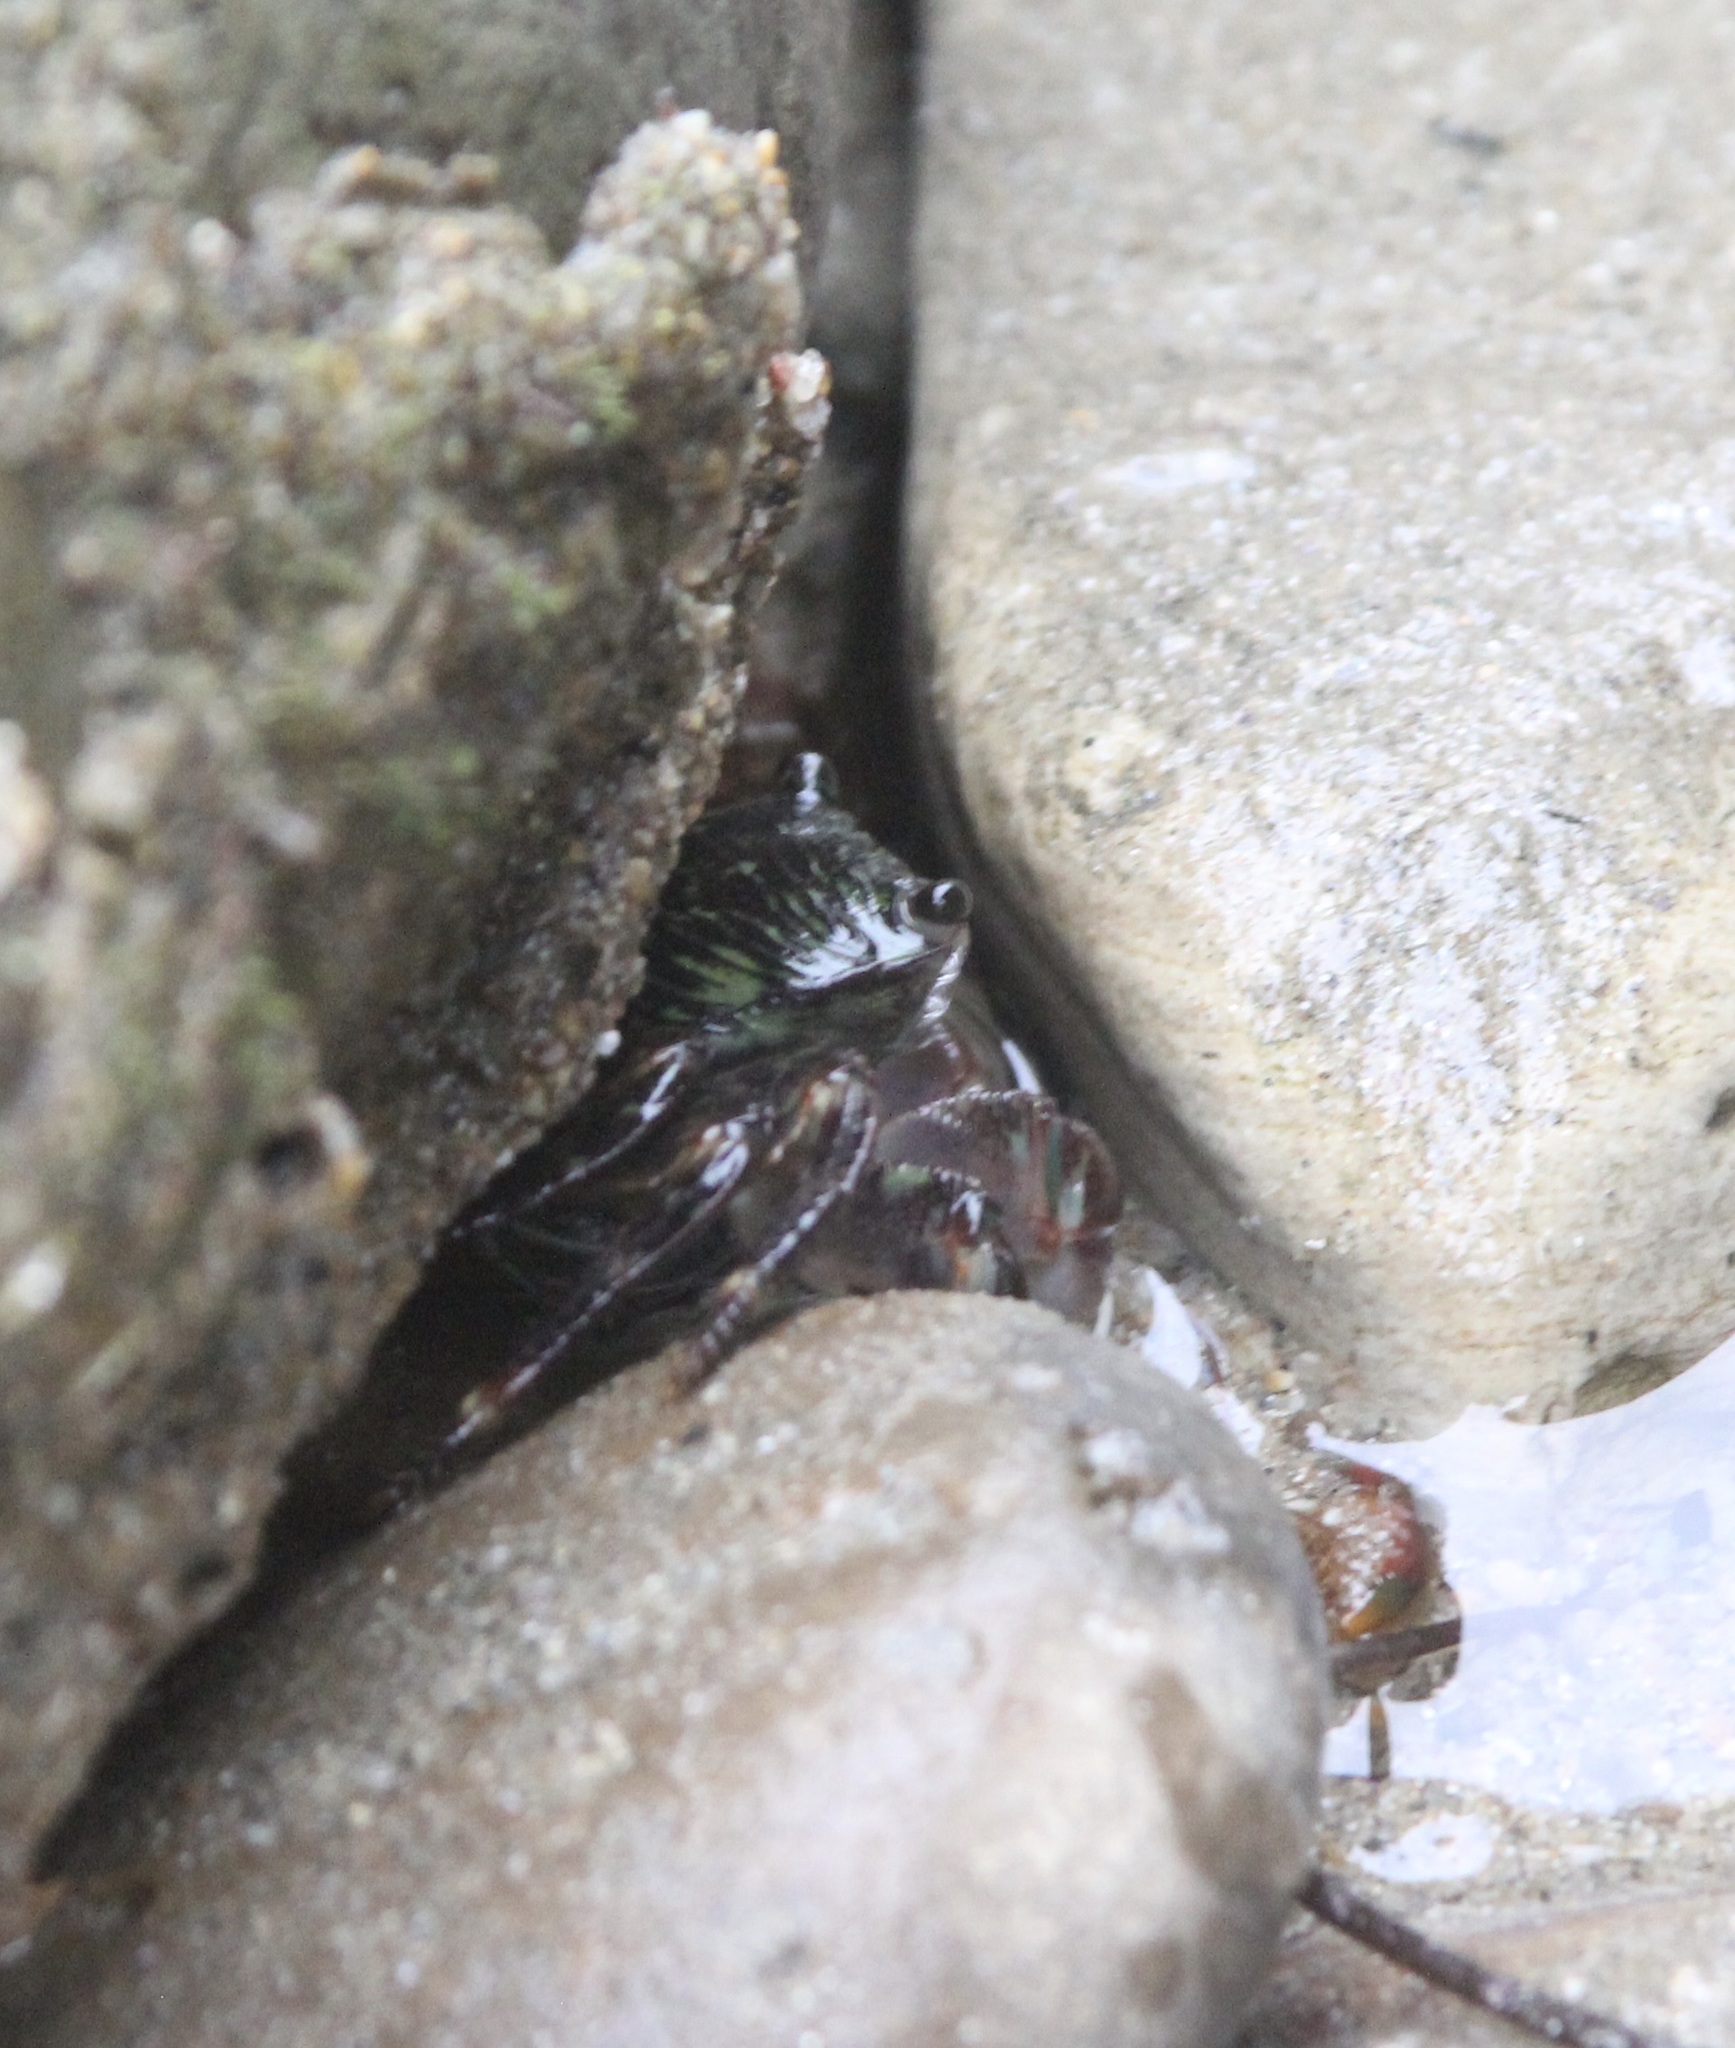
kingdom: Animalia
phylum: Arthropoda
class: Malacostraca
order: Decapoda
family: Grapsidae
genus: Pachygrapsus
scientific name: Pachygrapsus crassipes
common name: Striped shore crab
